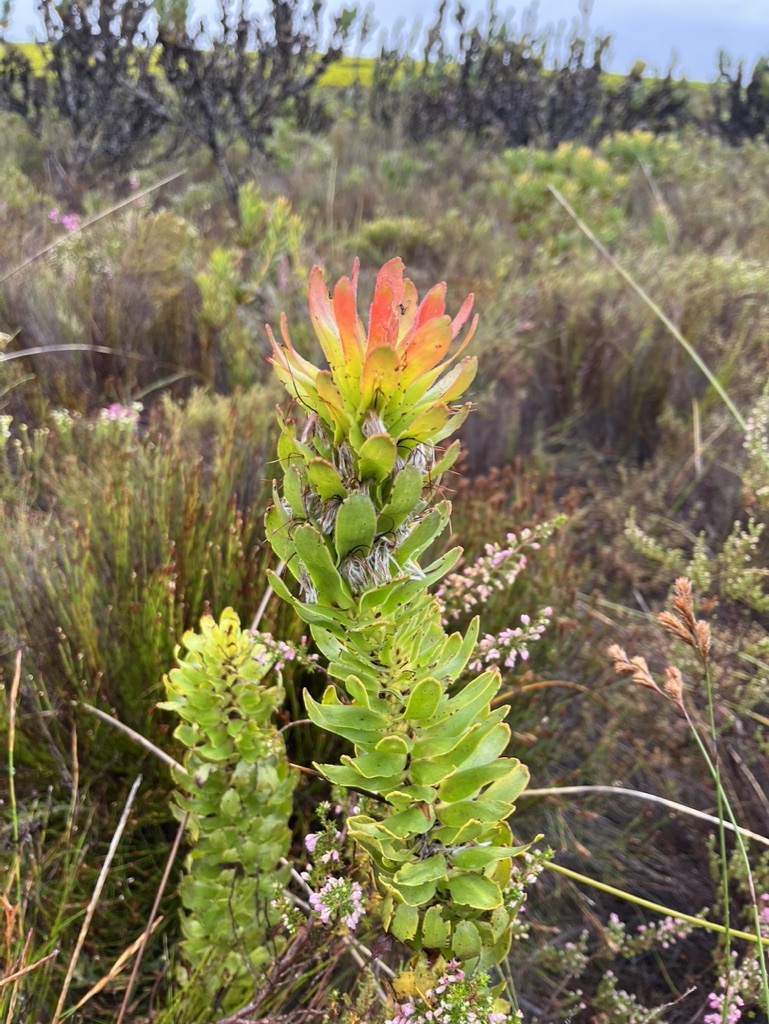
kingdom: Plantae
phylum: Tracheophyta
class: Magnoliopsida
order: Proteales
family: Proteaceae
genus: Mimetes
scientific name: Mimetes cucullatus
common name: Common pagoda
